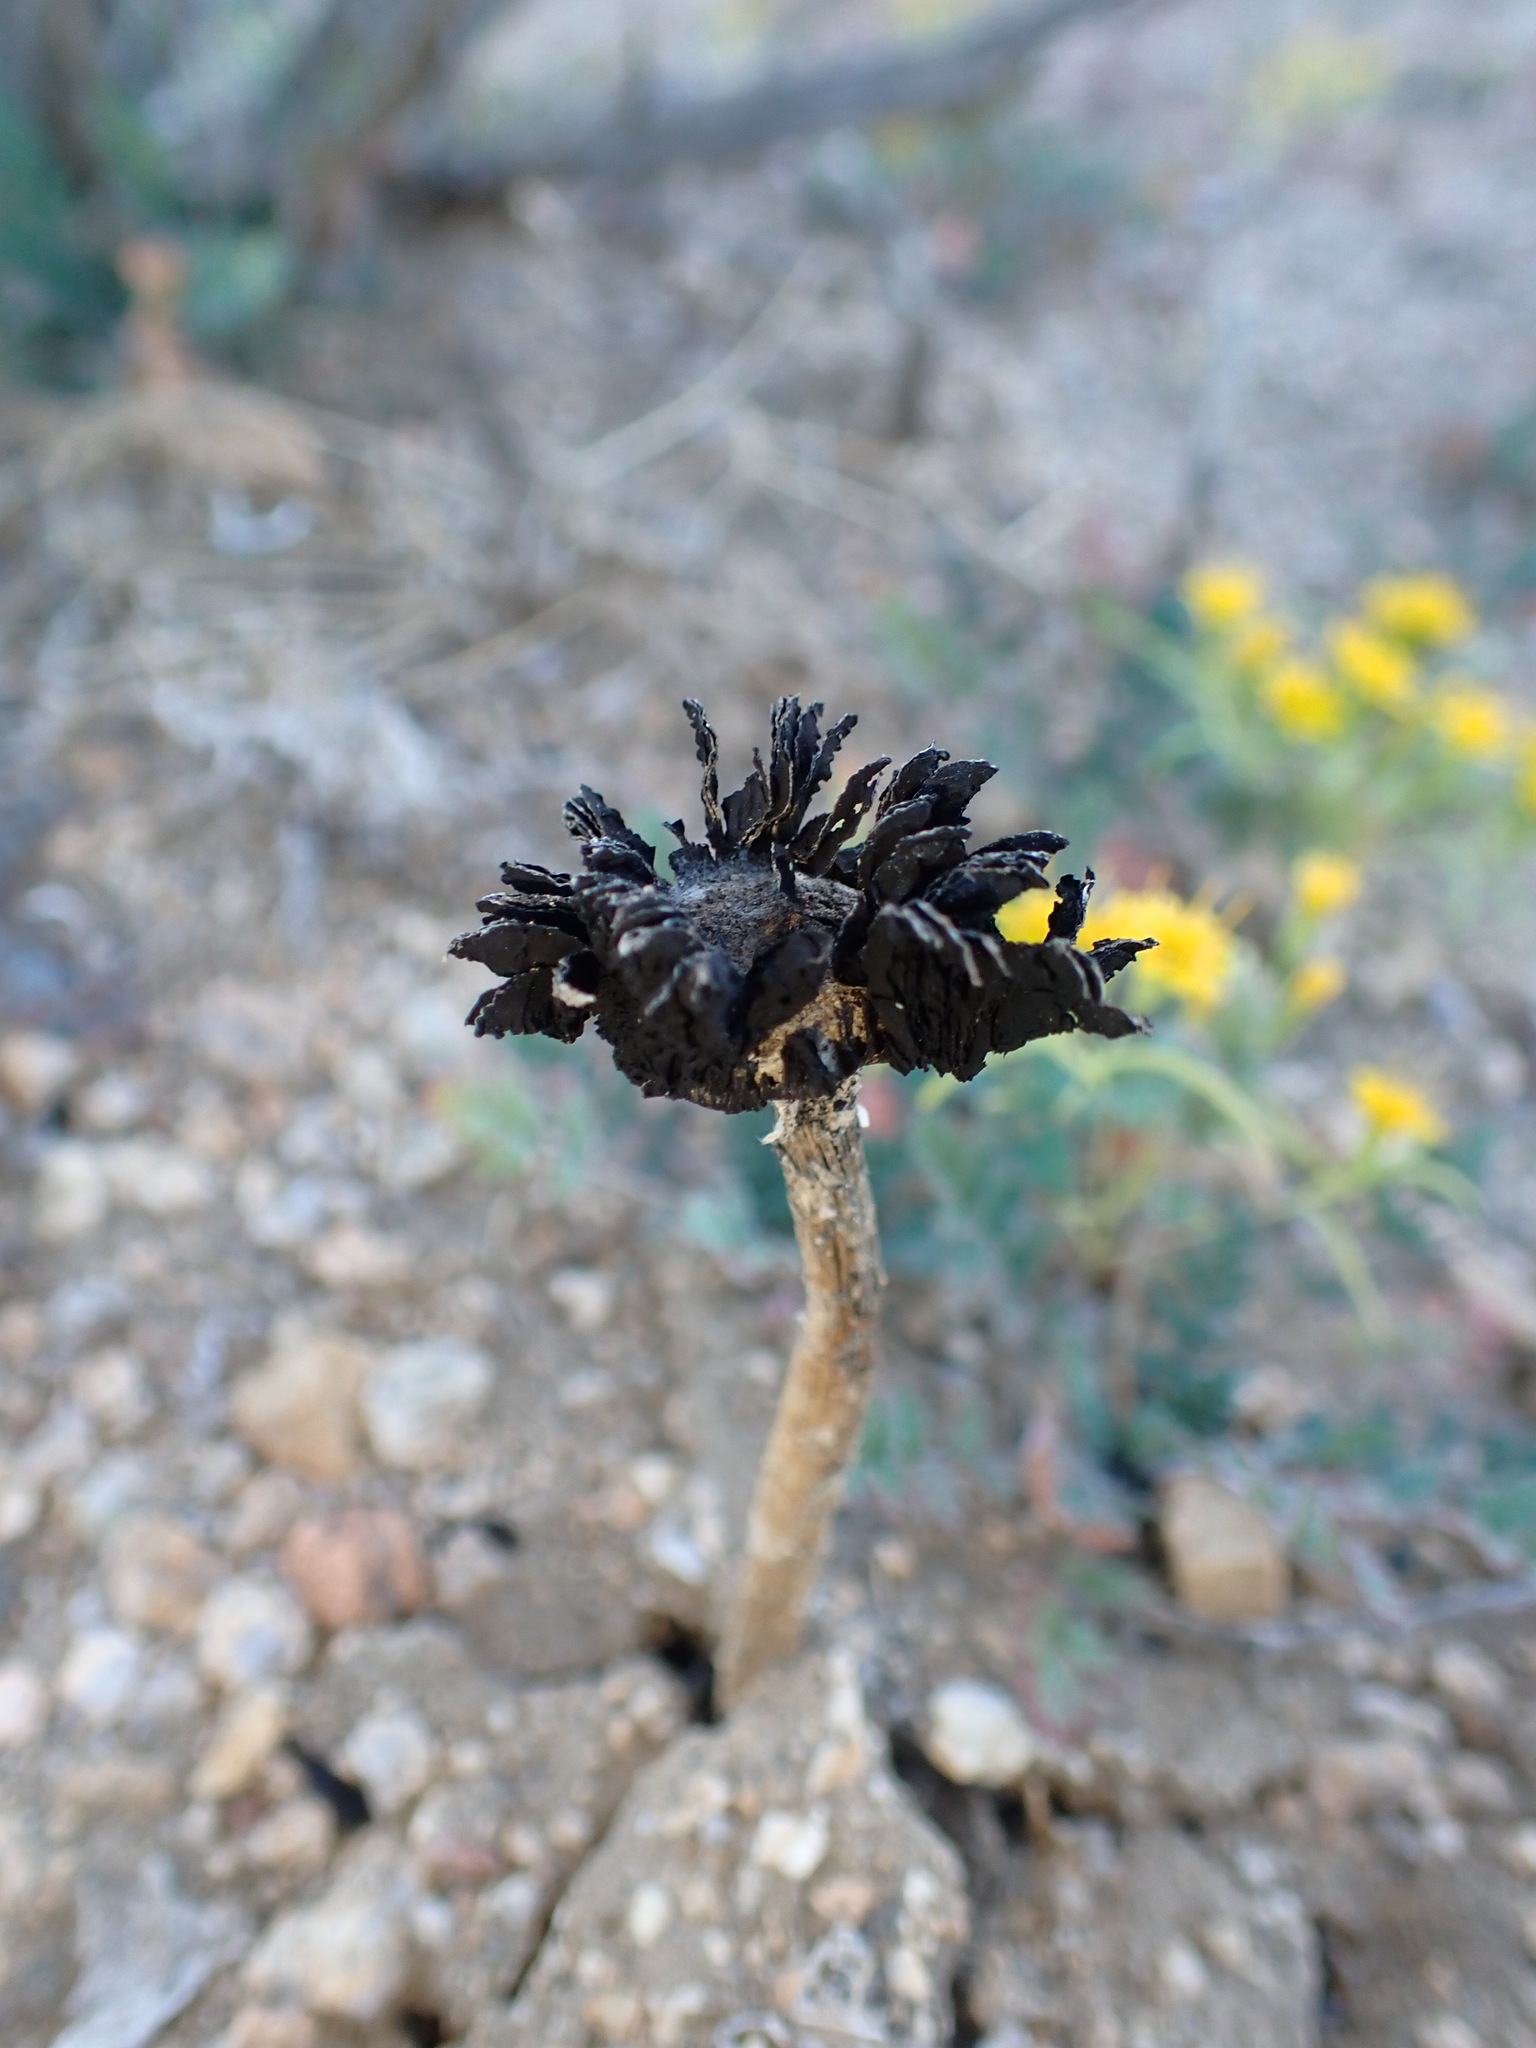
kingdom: Fungi
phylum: Basidiomycota
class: Agaricomycetes
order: Agaricales
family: Agaricaceae
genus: Montagnea
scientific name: Montagnea arenaria
